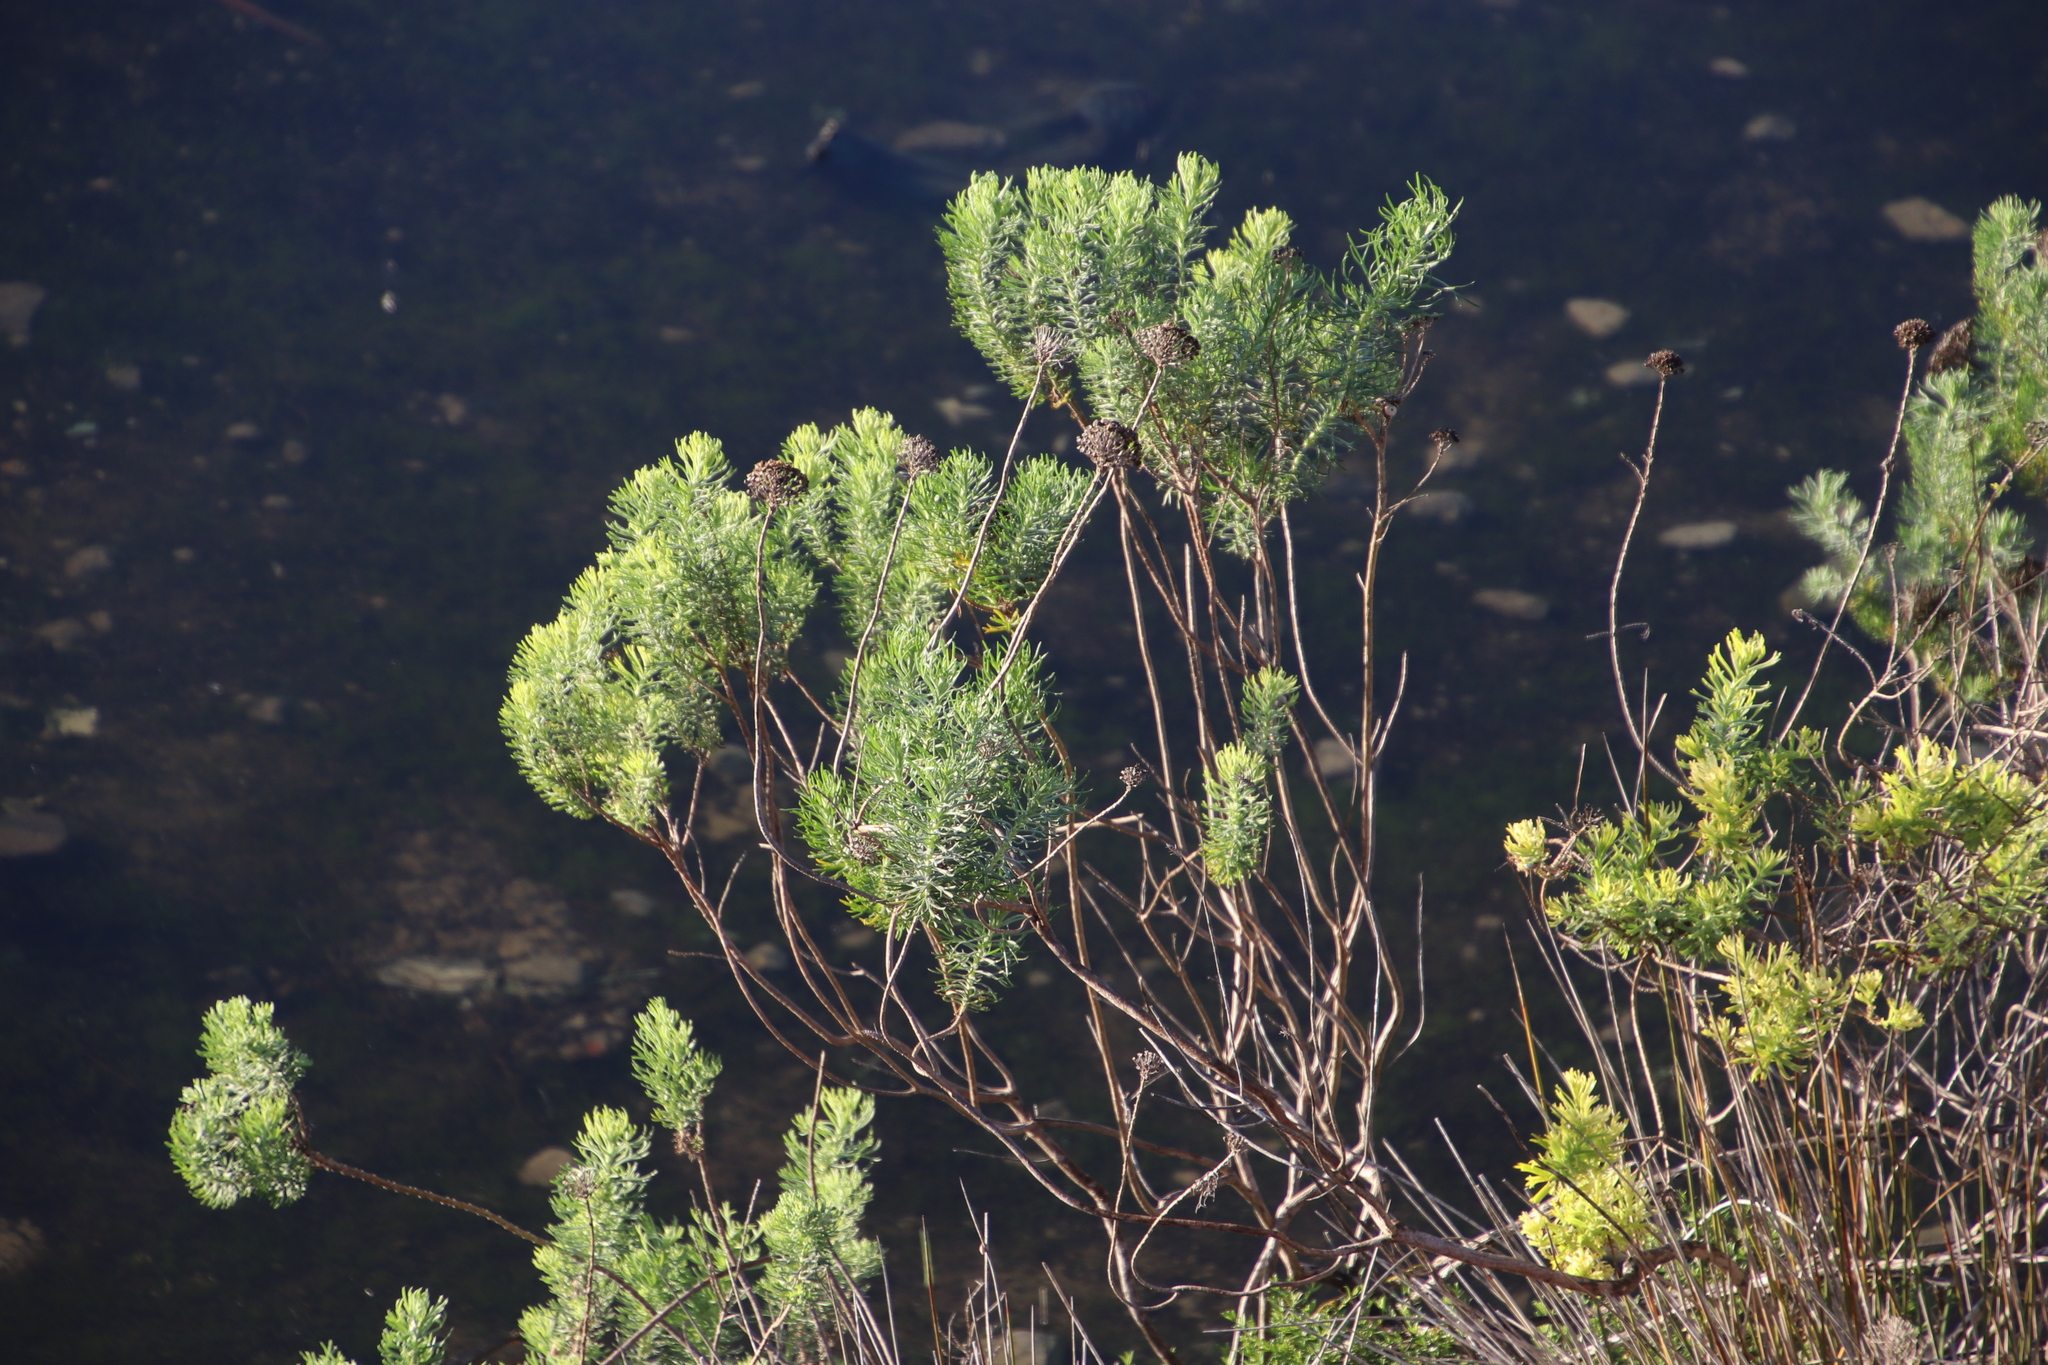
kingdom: Plantae
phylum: Tracheophyta
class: Magnoliopsida
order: Asterales
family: Asteraceae
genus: Athanasia
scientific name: Athanasia crithmifolia
